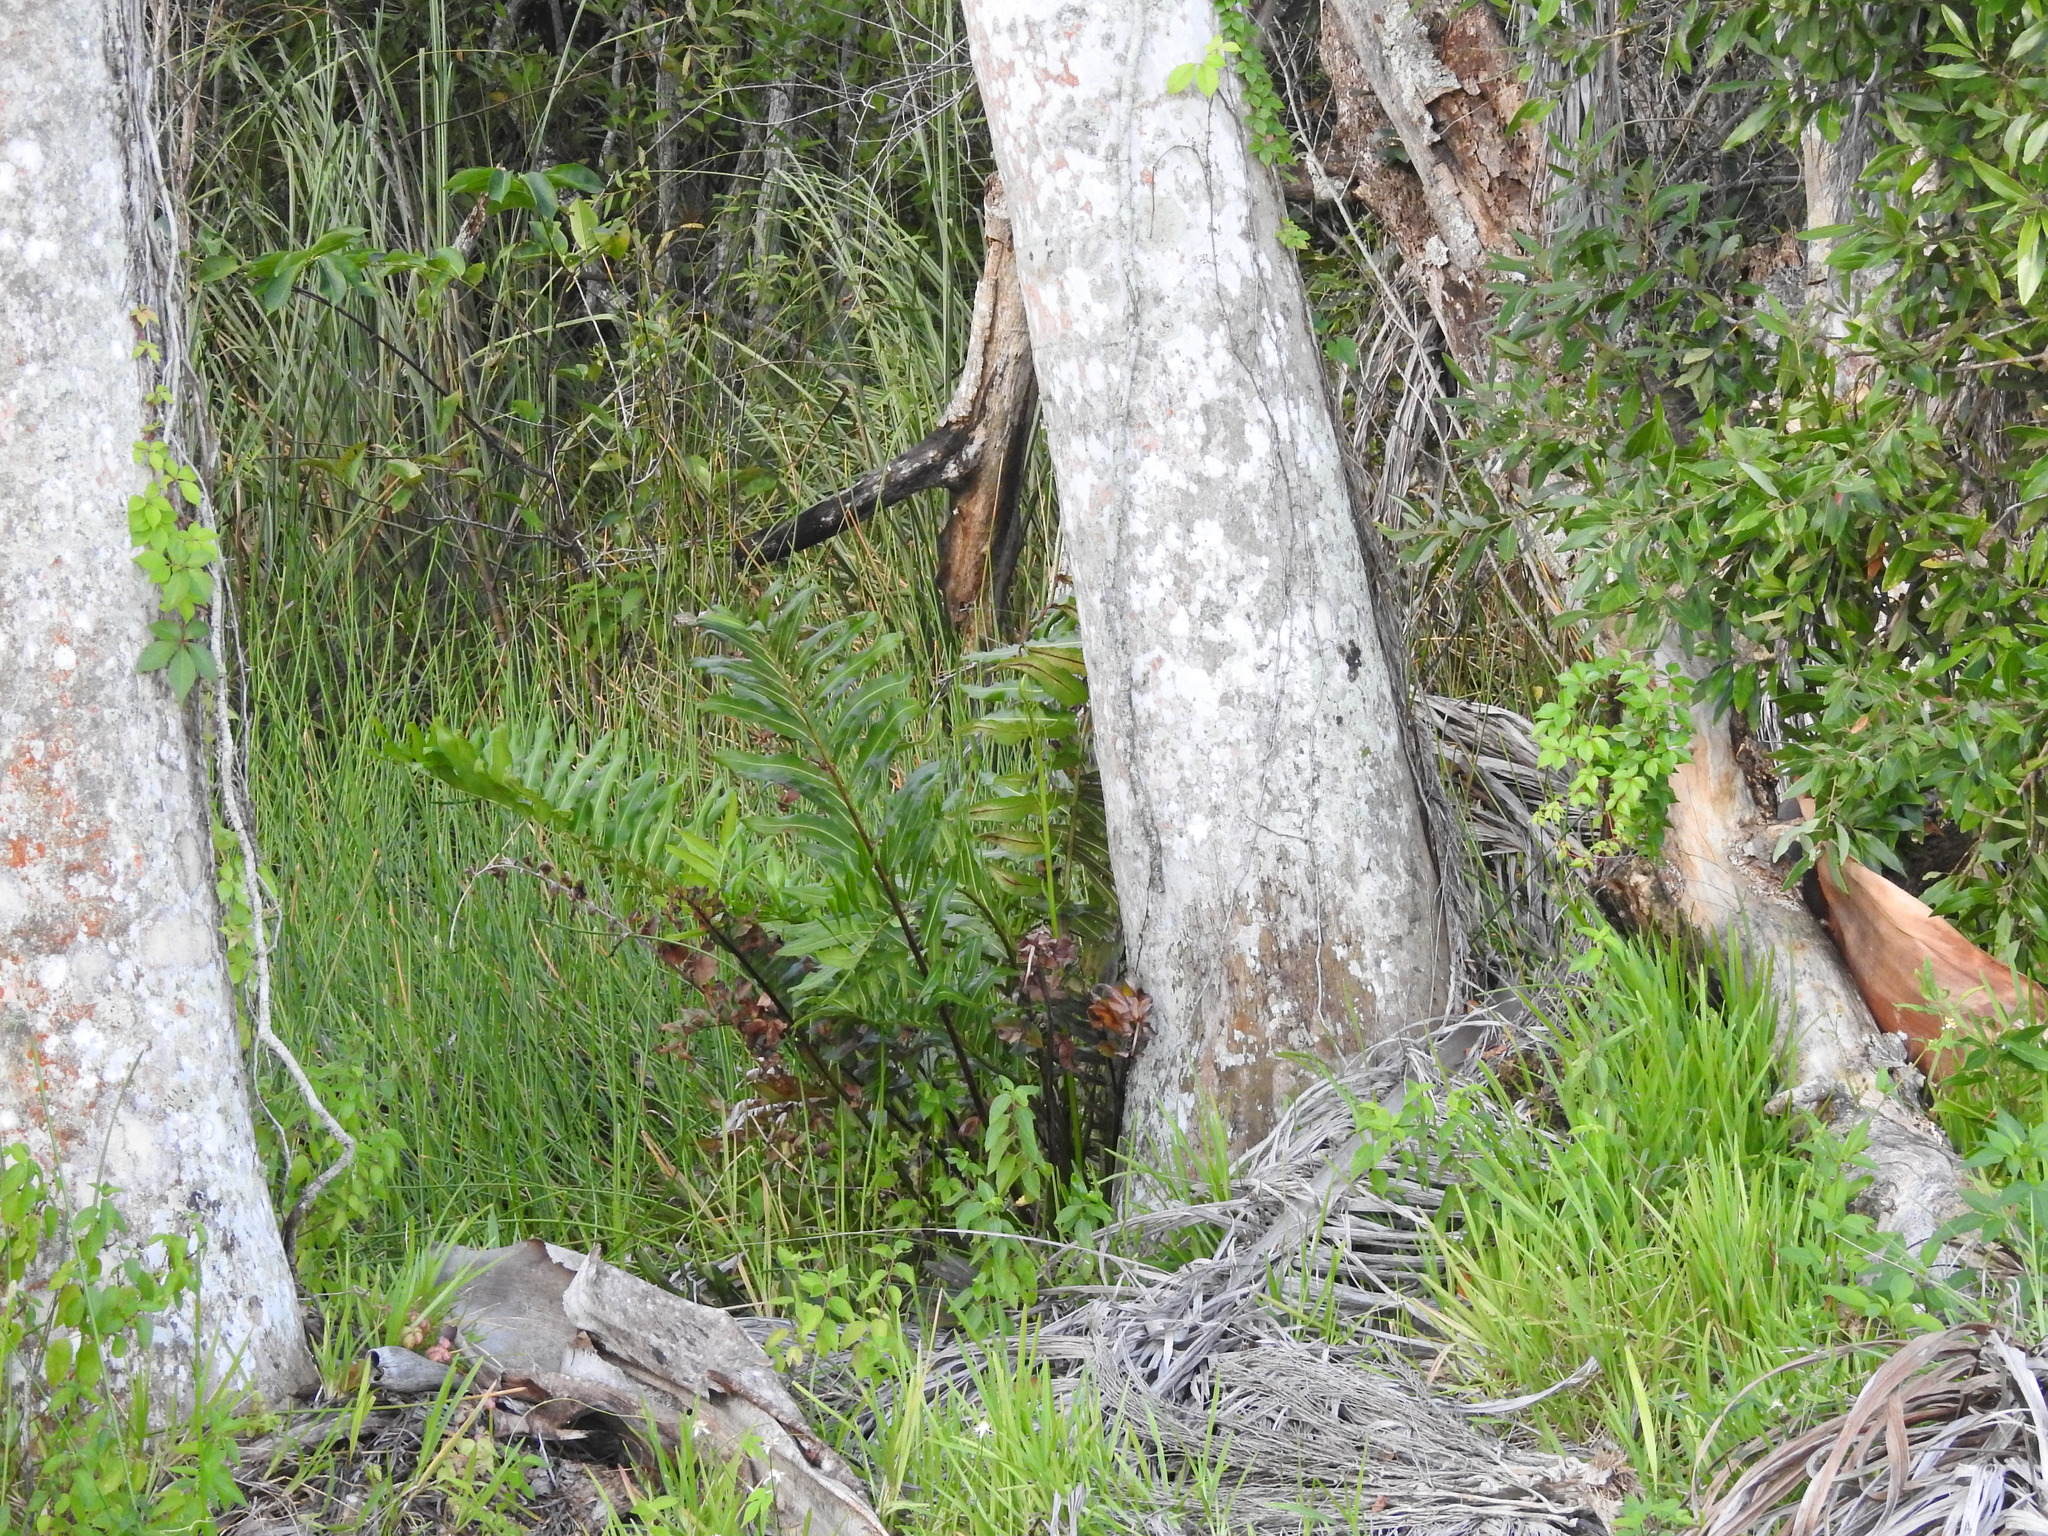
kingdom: Plantae
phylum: Tracheophyta
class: Liliopsida
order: Arecales
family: Arecaceae
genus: Roystonea
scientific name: Roystonea regia
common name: Florida royal palm
